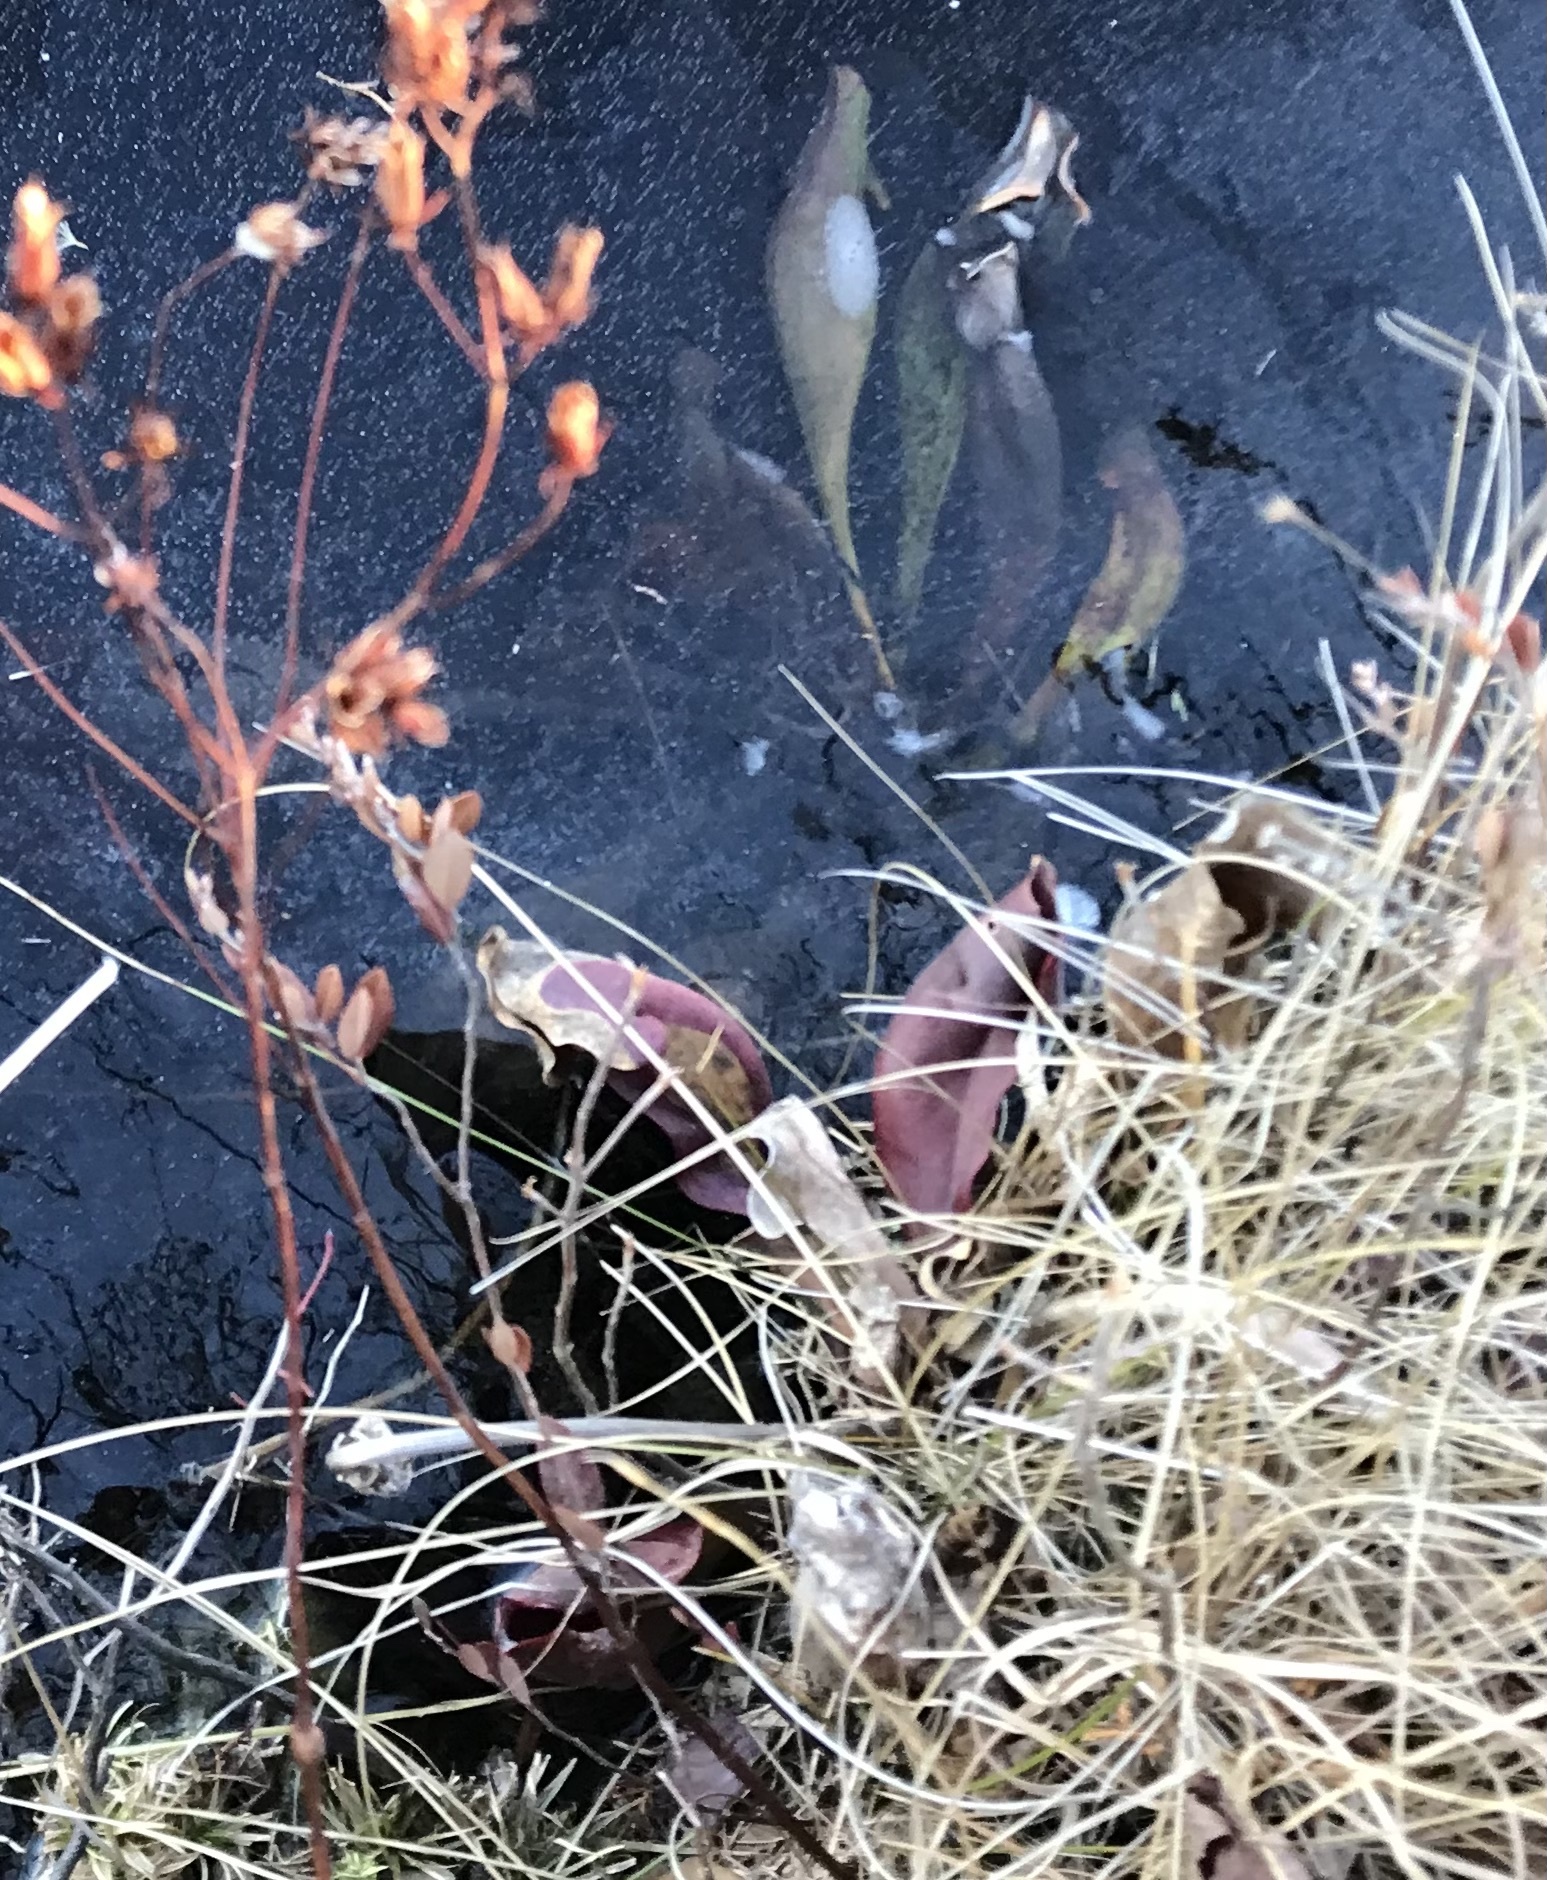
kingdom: Plantae
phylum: Tracheophyta
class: Magnoliopsida
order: Ericales
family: Sarraceniaceae
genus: Sarracenia
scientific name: Sarracenia purpurea
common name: Pitcherplant
